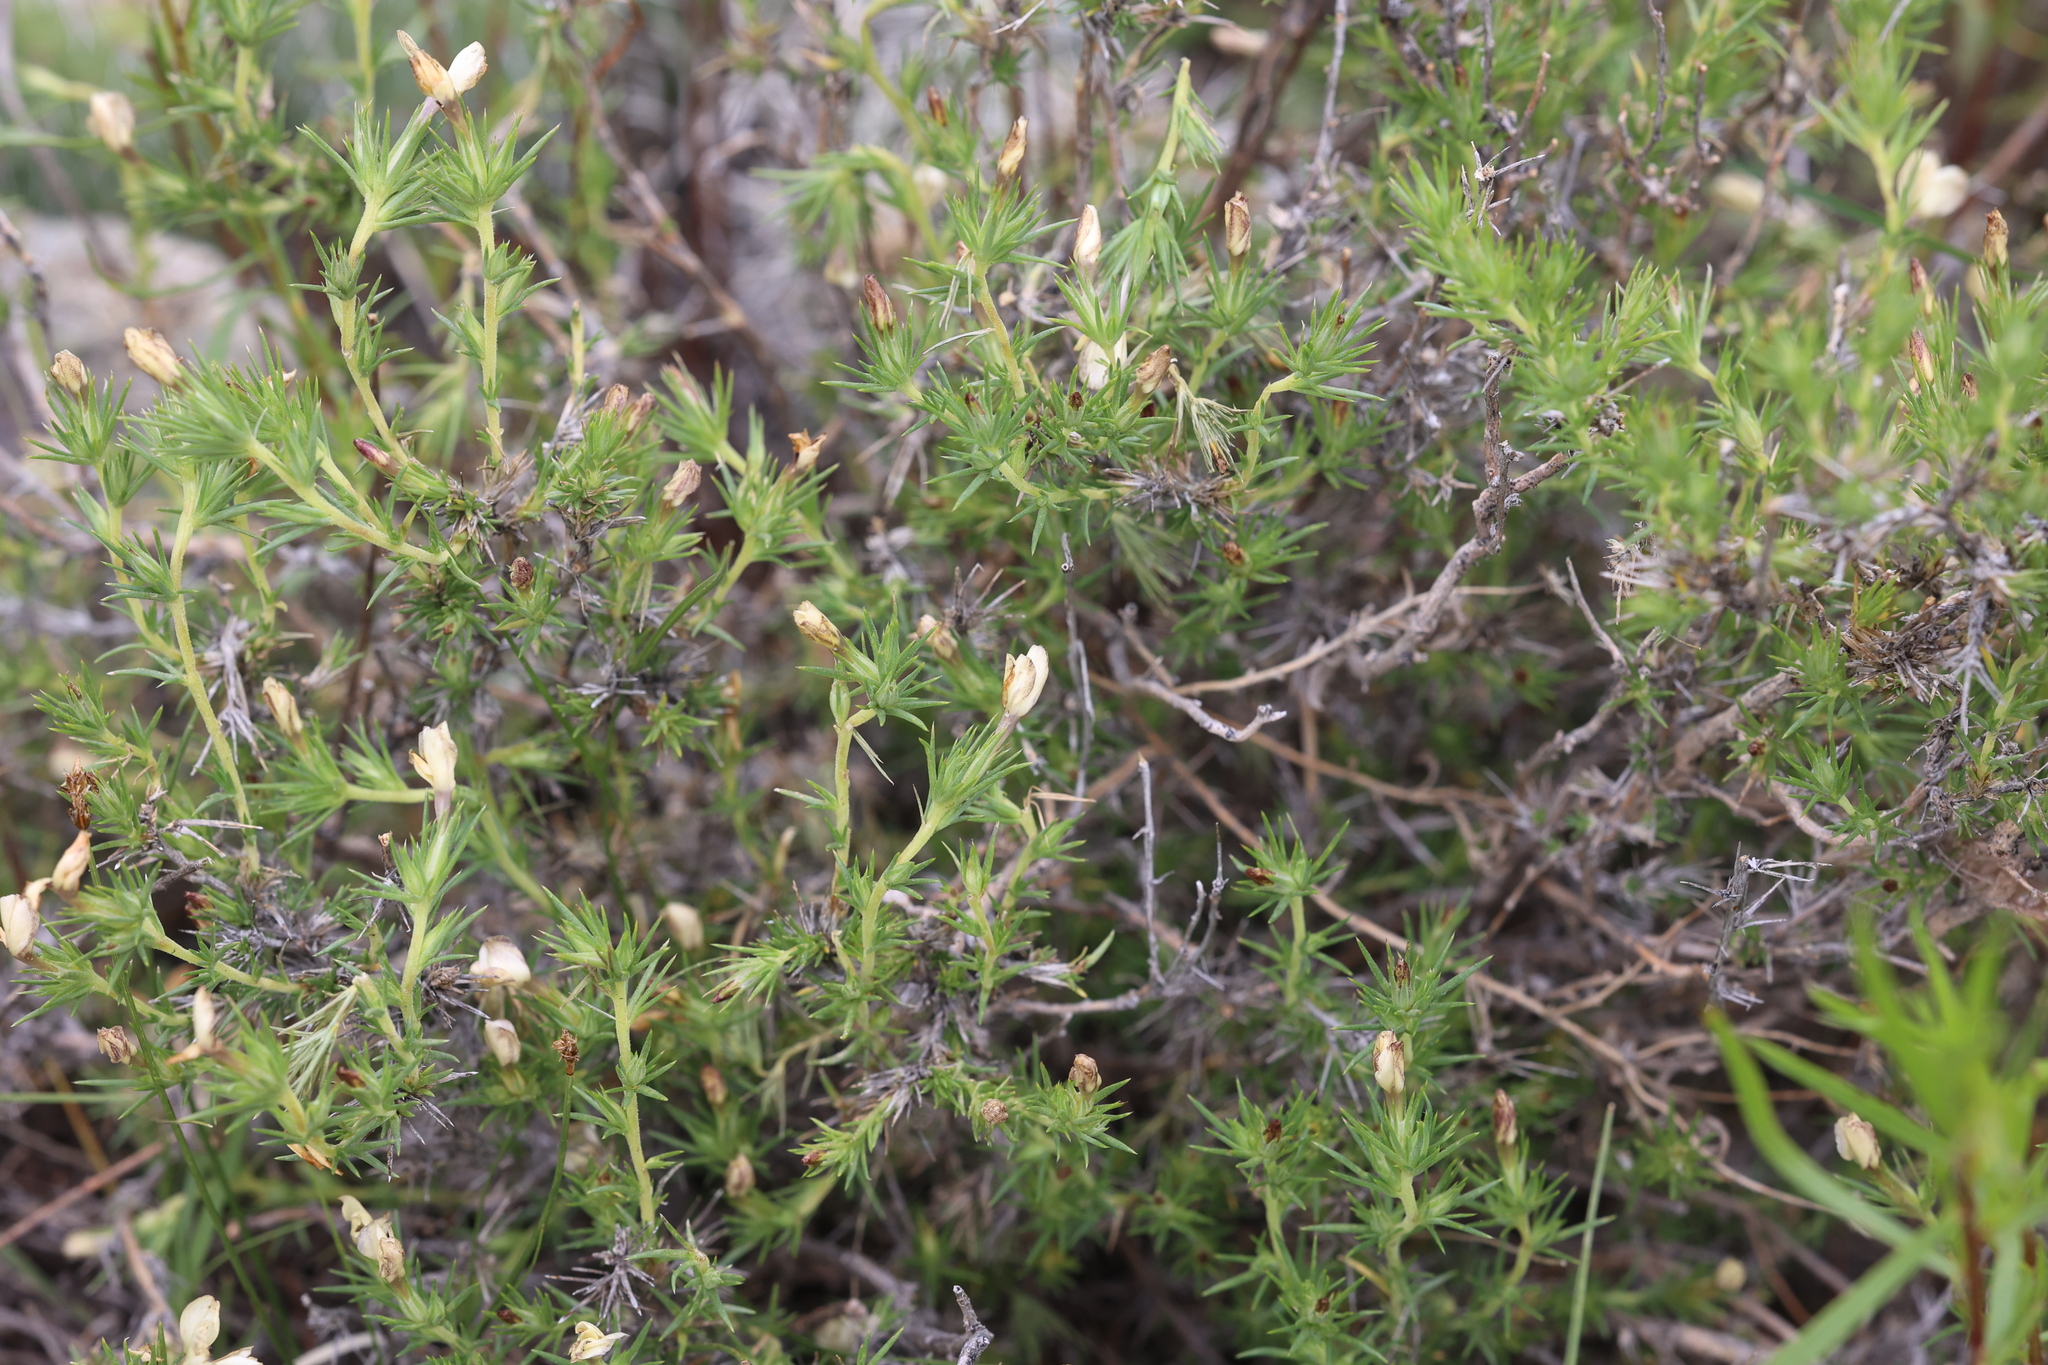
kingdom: Plantae
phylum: Tracheophyta
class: Magnoliopsida
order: Ericales
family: Polemoniaceae
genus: Linanthus
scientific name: Linanthus pungens
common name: Granite prickly phlox
